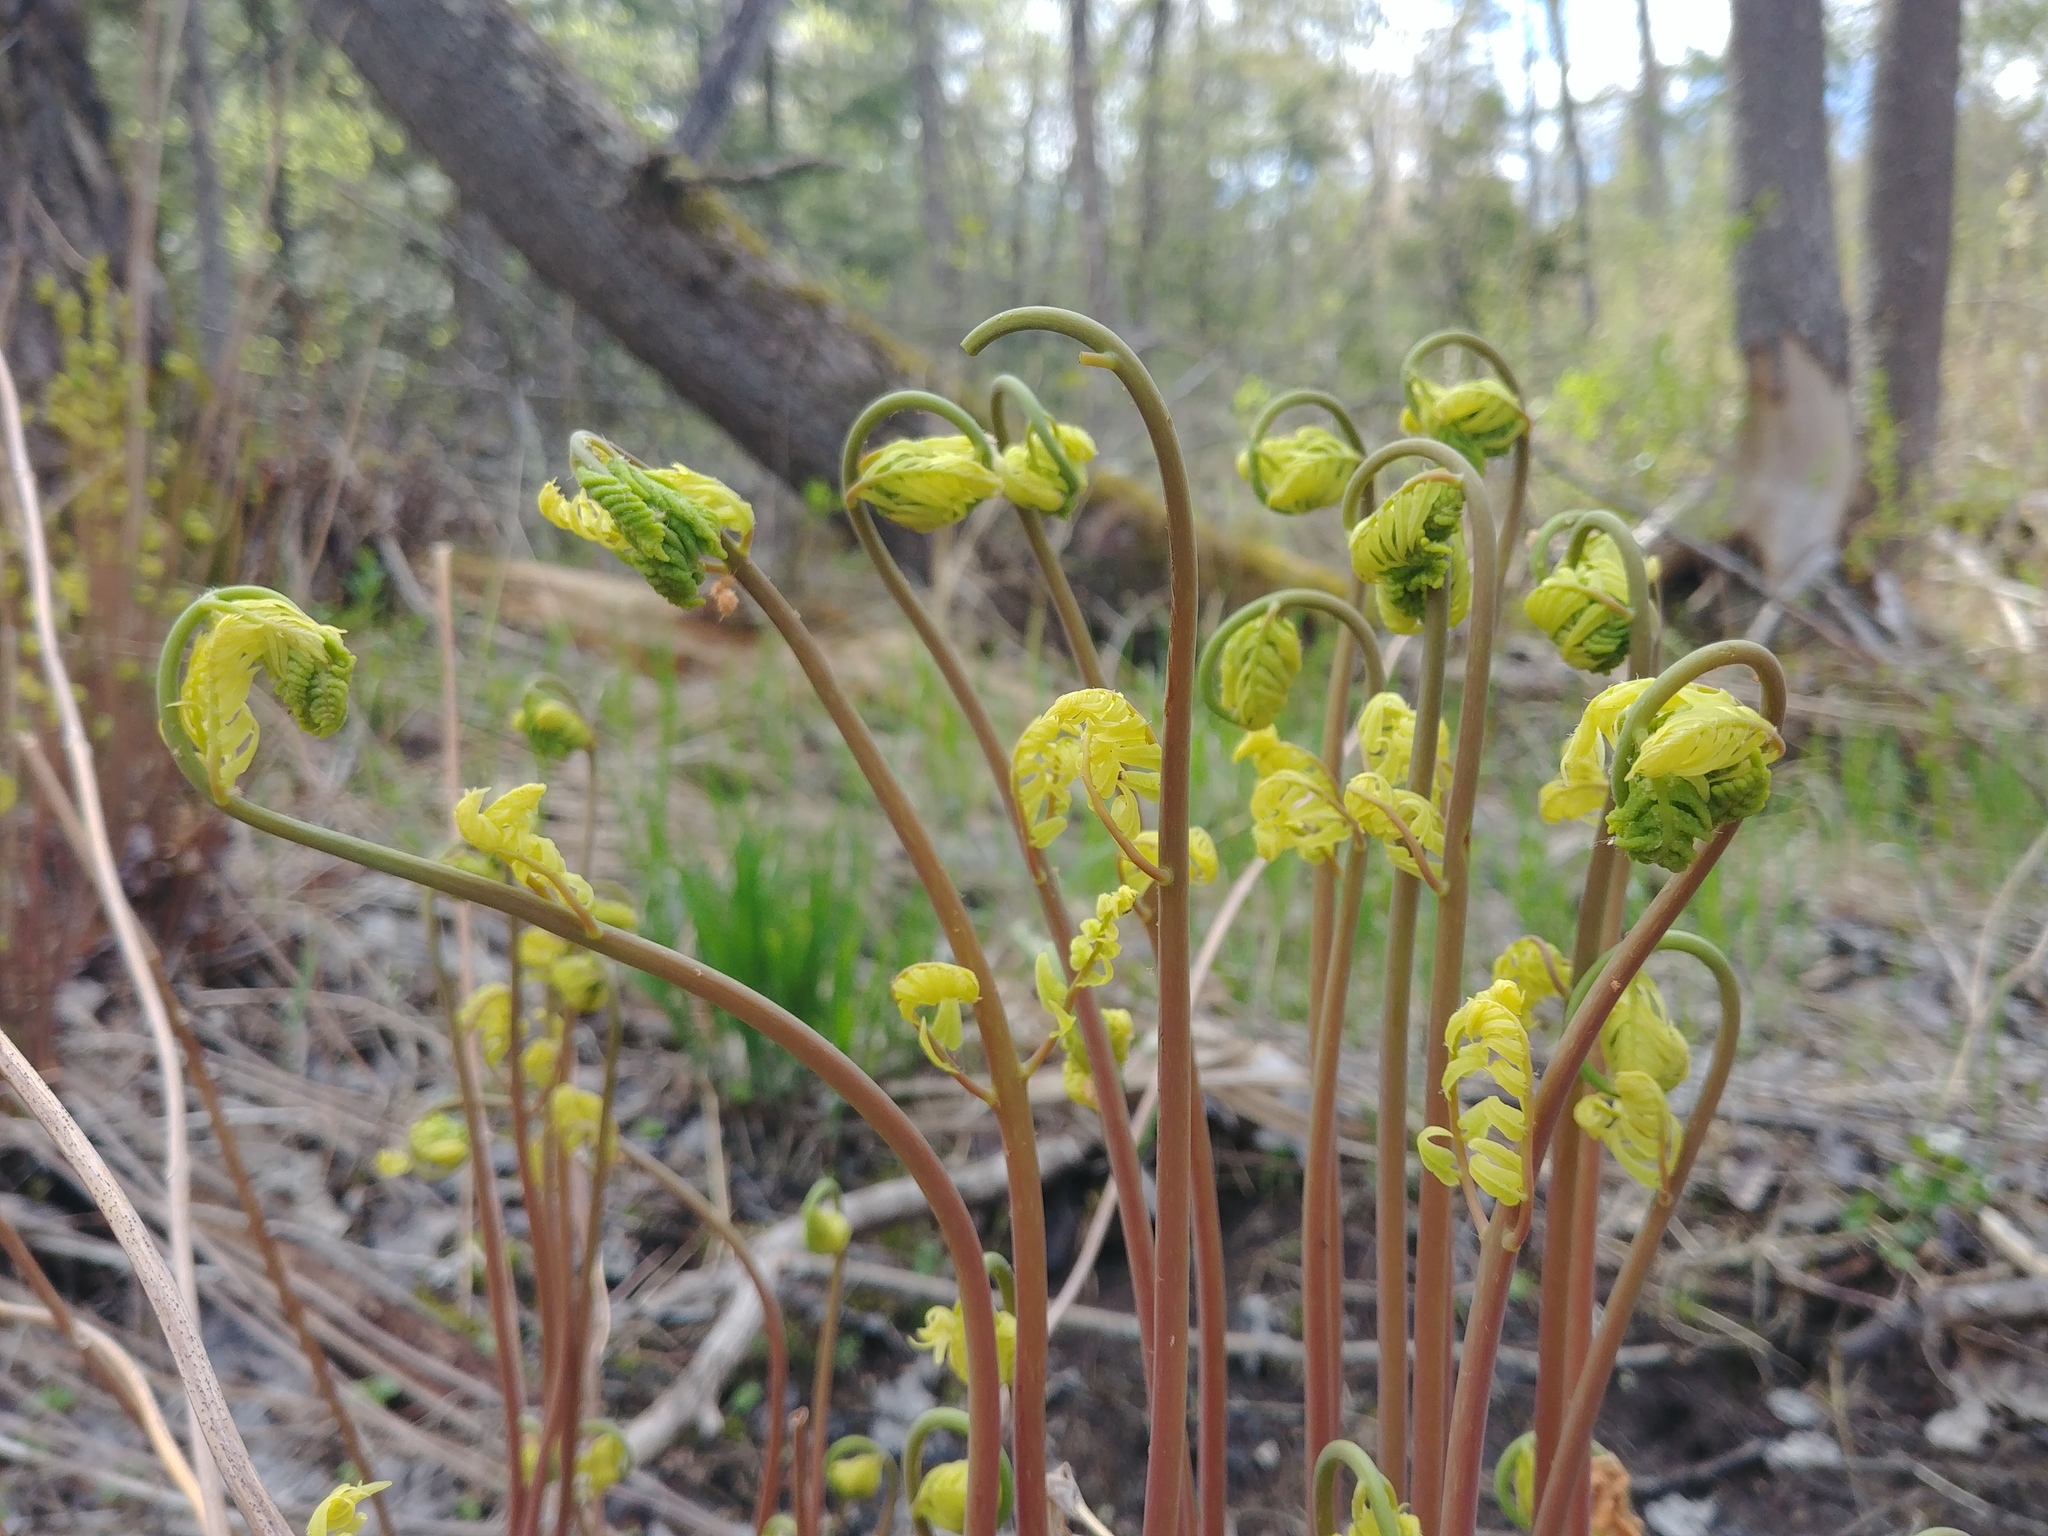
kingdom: Plantae
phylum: Tracheophyta
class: Polypodiopsida
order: Osmundales
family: Osmundaceae
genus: Osmunda
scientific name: Osmunda spectabilis
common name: American royal fern
